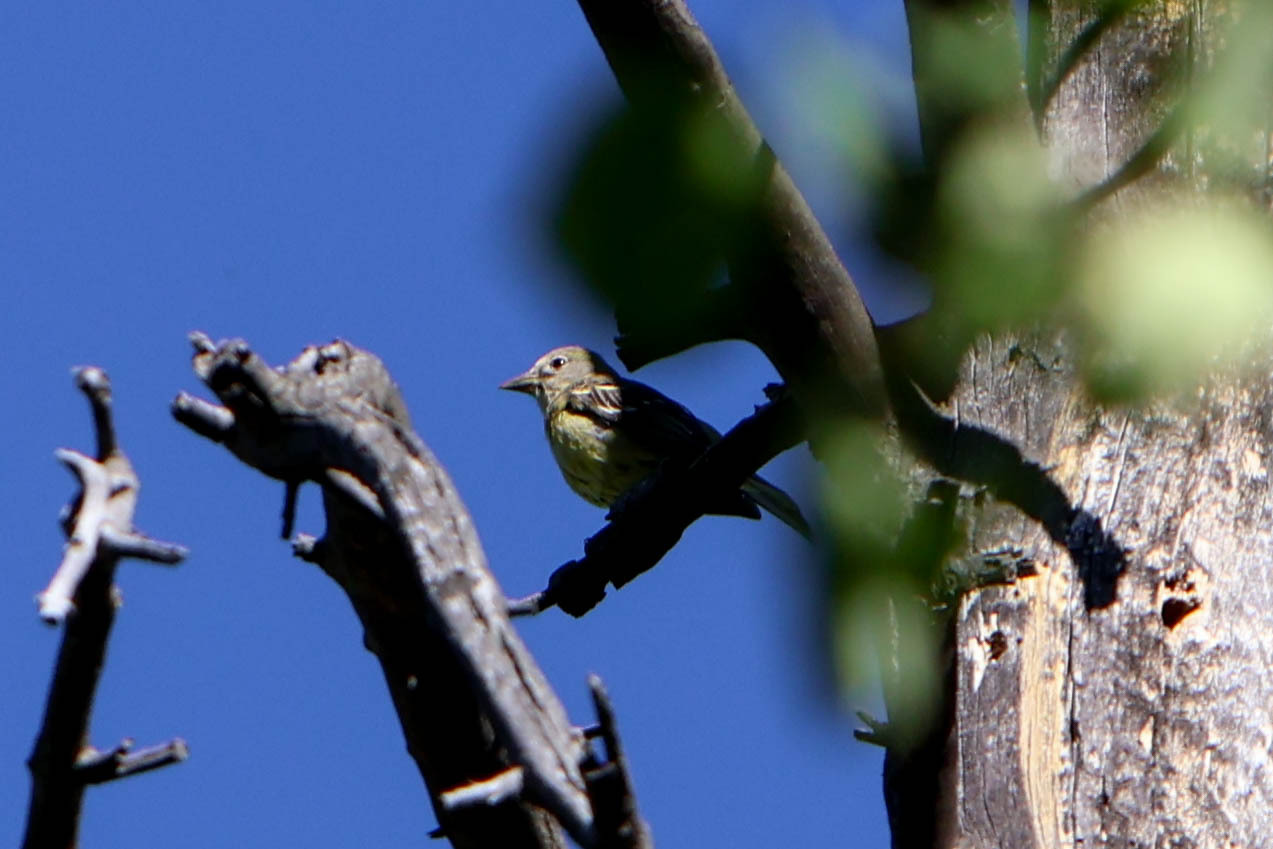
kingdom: Animalia
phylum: Chordata
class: Aves
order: Passeriformes
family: Cardinalidae
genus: Piranga
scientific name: Piranga ludoviciana
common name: Western tanager
